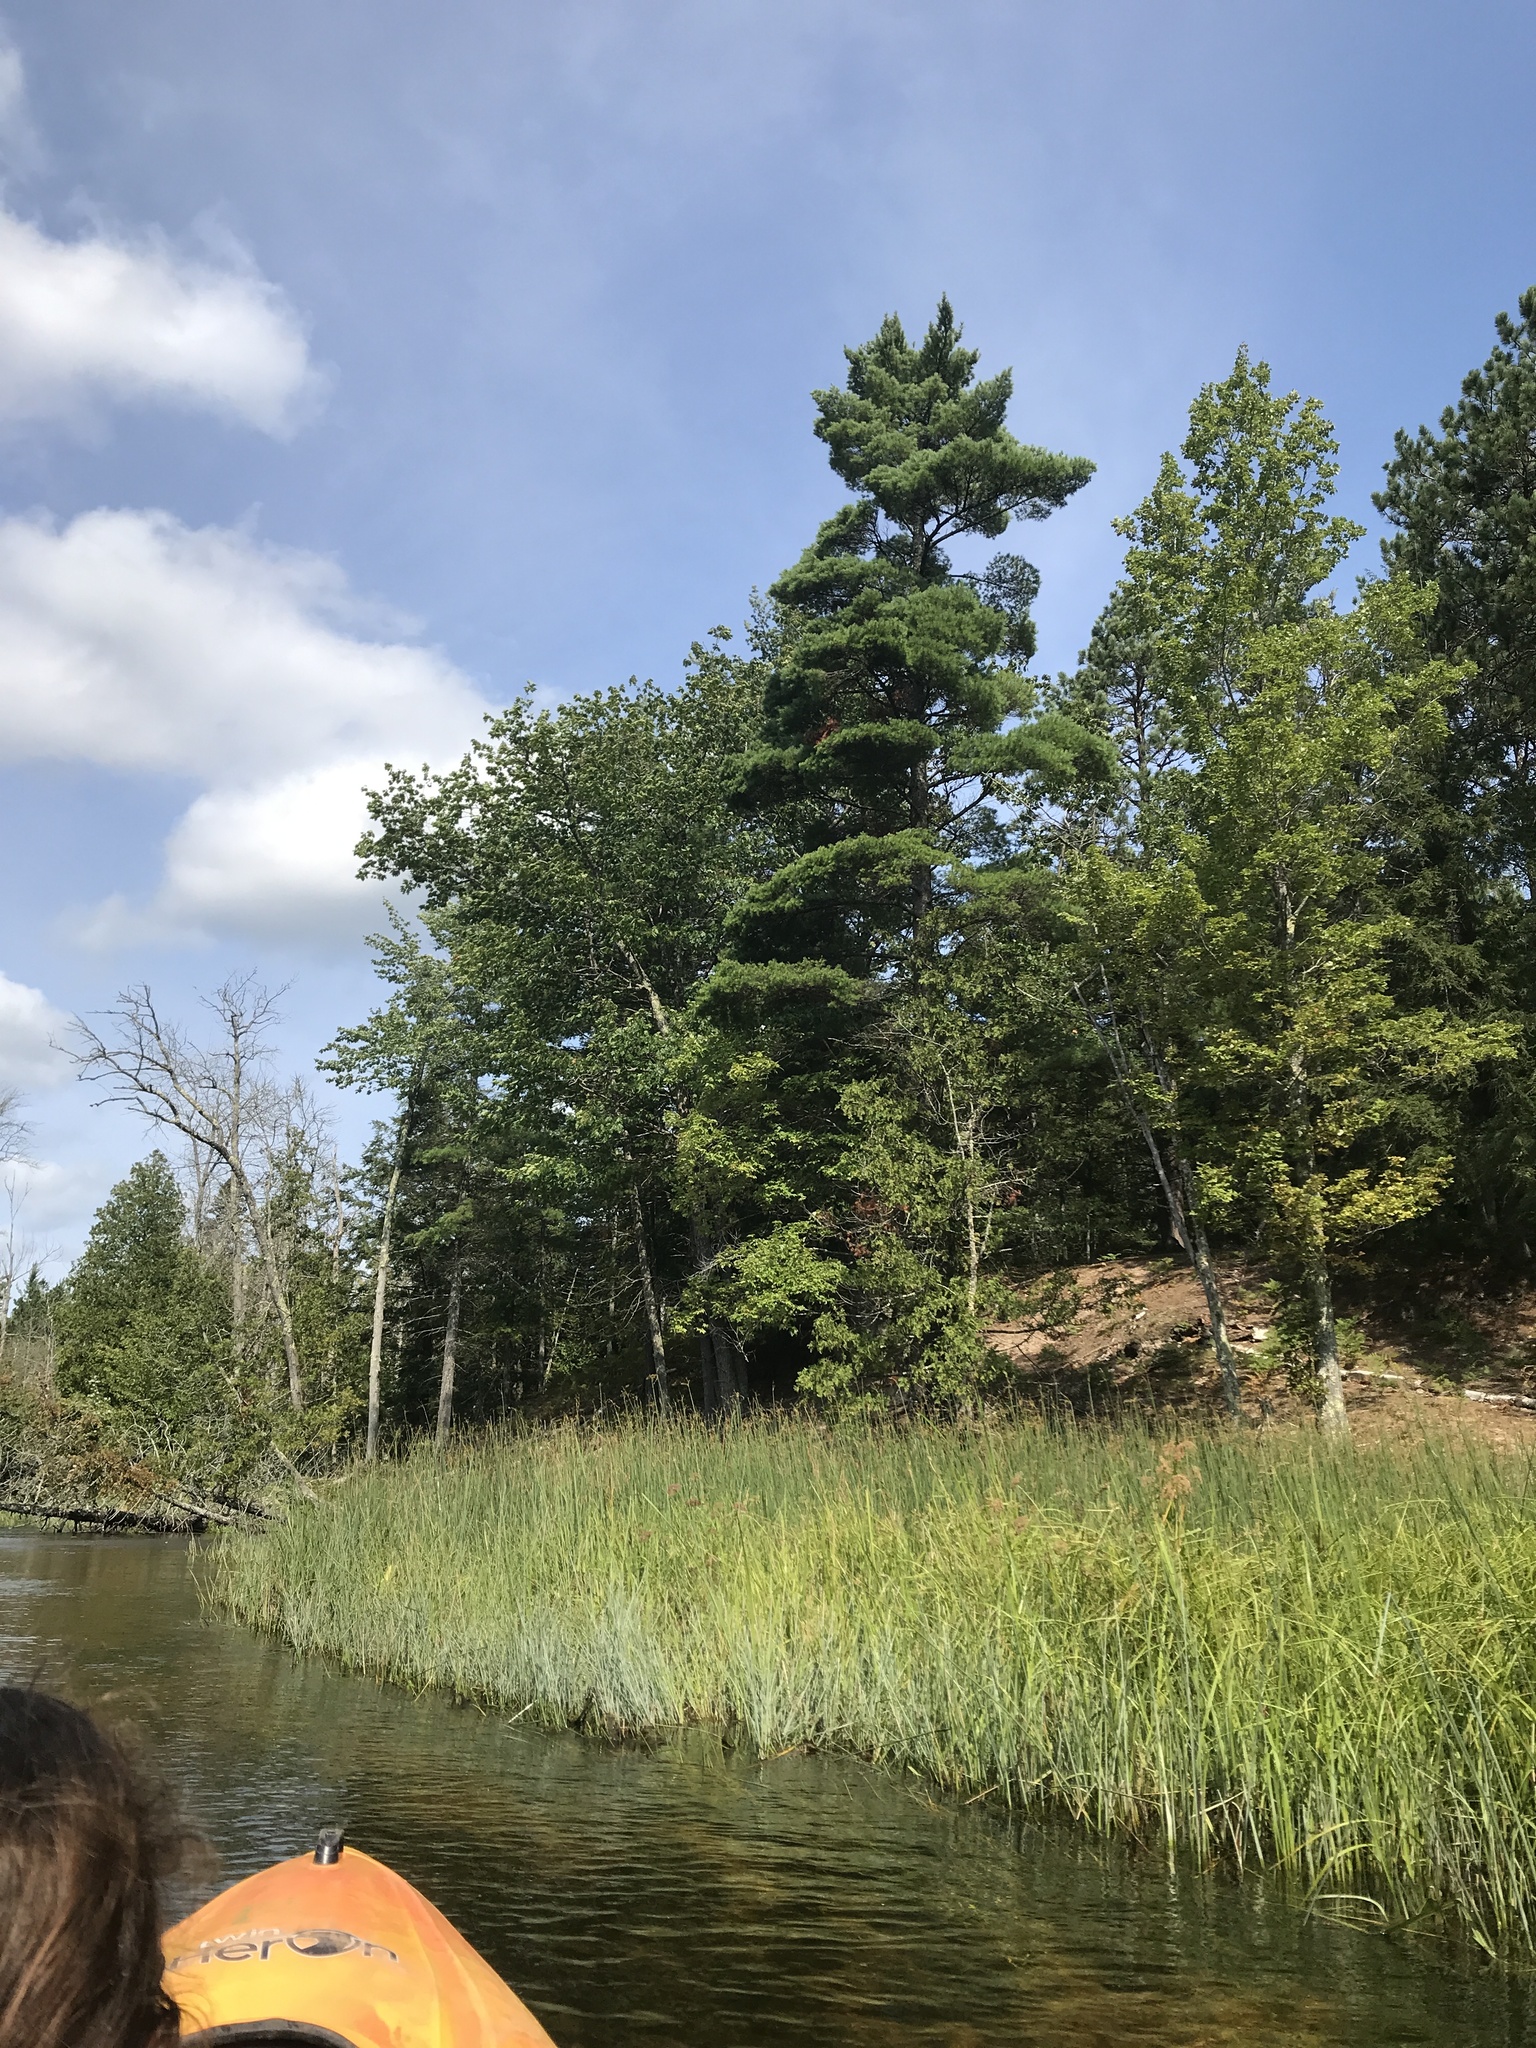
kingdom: Plantae
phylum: Tracheophyta
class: Pinopsida
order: Pinales
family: Pinaceae
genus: Pinus
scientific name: Pinus strobus
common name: Weymouth pine
